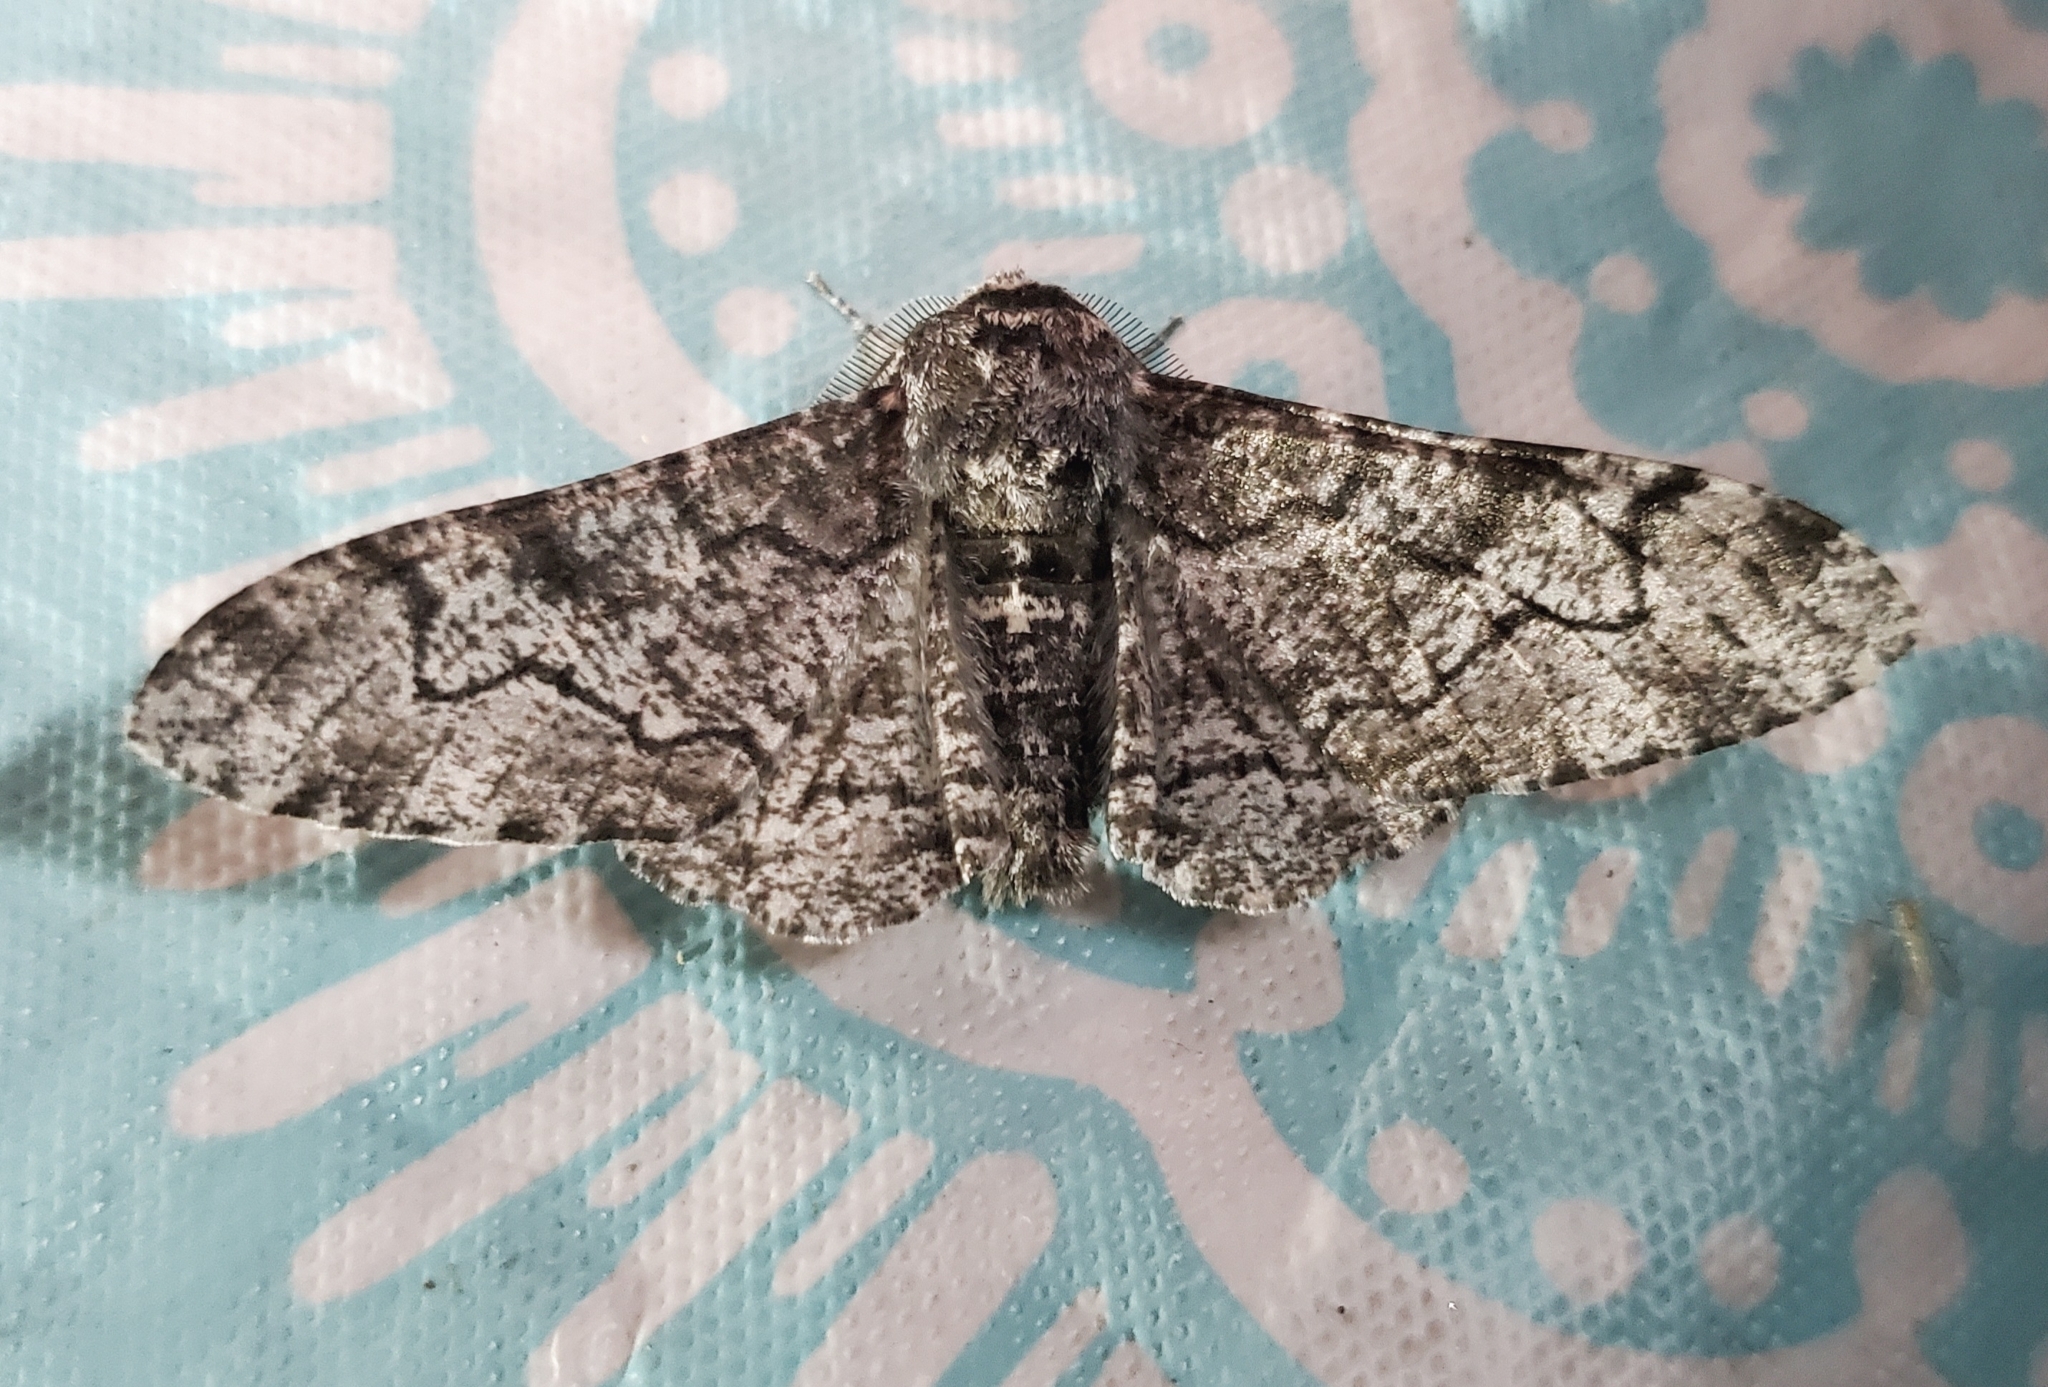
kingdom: Animalia
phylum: Arthropoda
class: Insecta
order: Lepidoptera
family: Geometridae
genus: Biston
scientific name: Biston betularia
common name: Peppered moth
